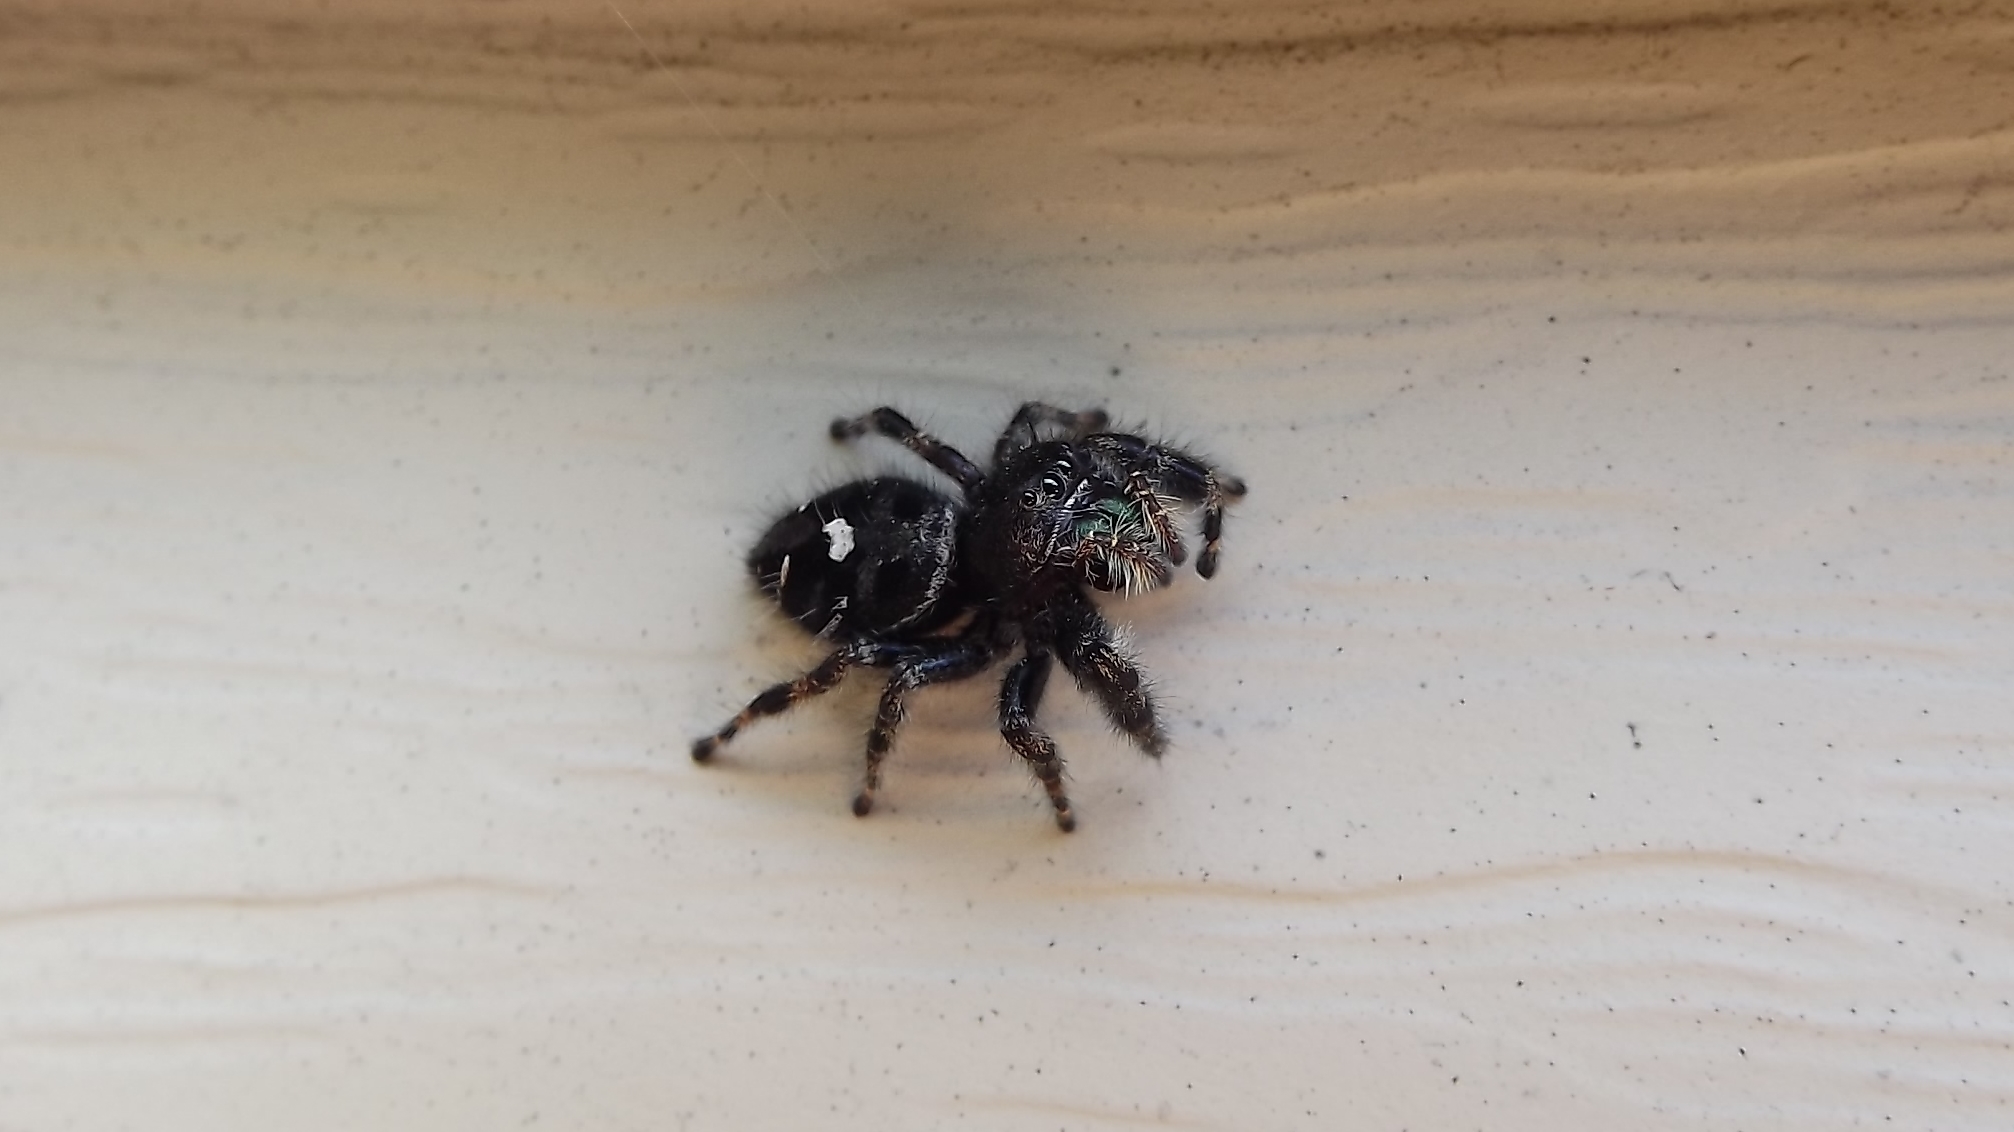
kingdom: Animalia
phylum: Arthropoda
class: Arachnida
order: Araneae
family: Salticidae
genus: Phidippus
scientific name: Phidippus audax
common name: Bold jumper
